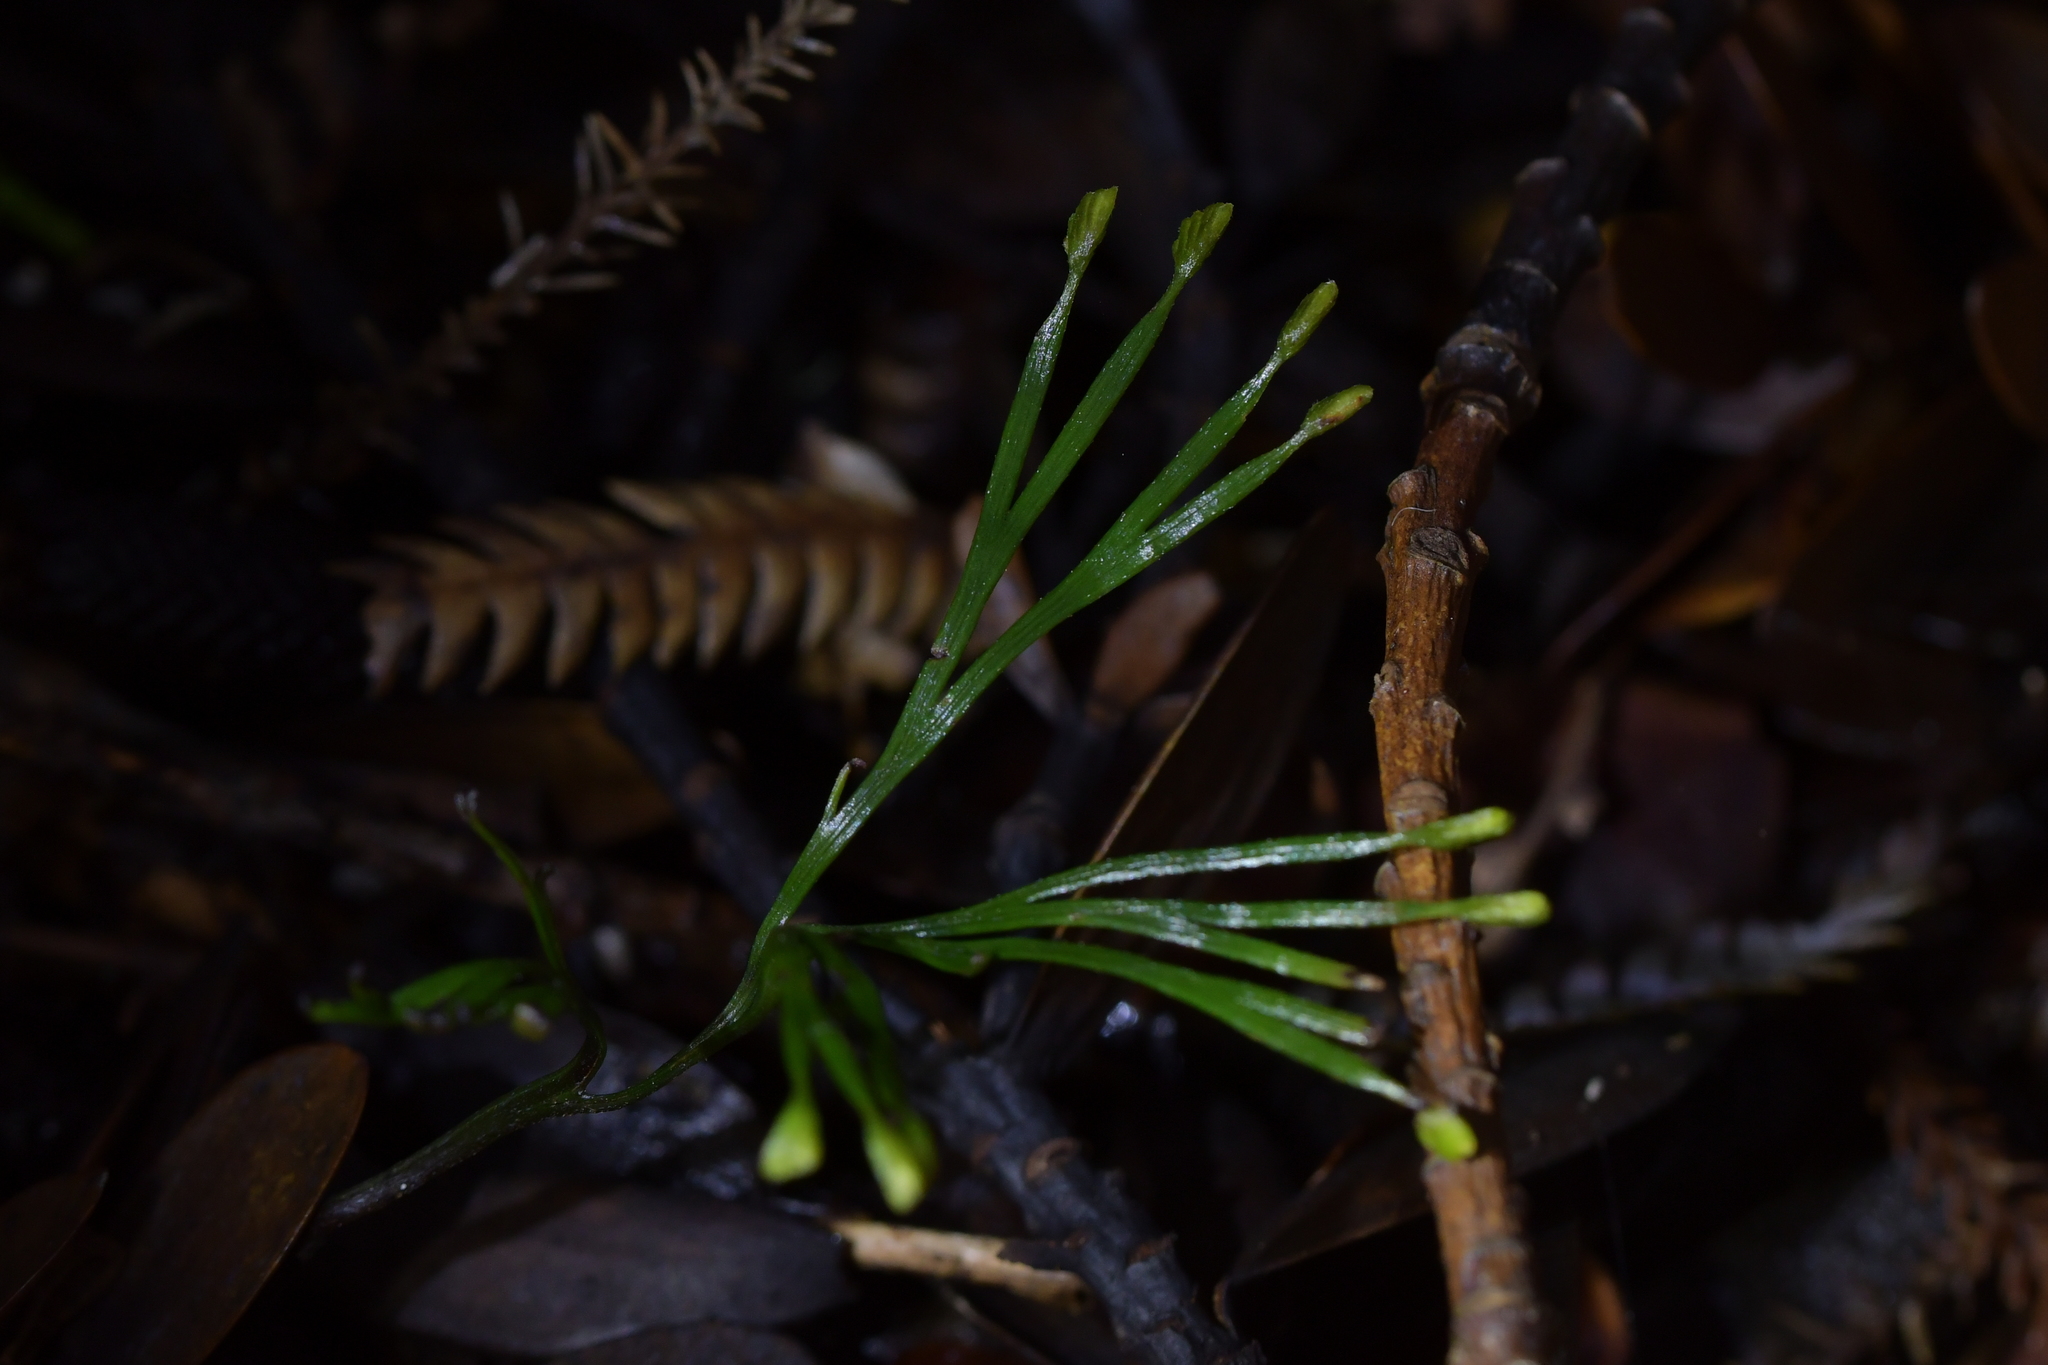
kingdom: Plantae
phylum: Tracheophyta
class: Polypodiopsida
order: Schizaeales
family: Schizaeaceae
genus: Schizaea
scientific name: Schizaea dichotoma
